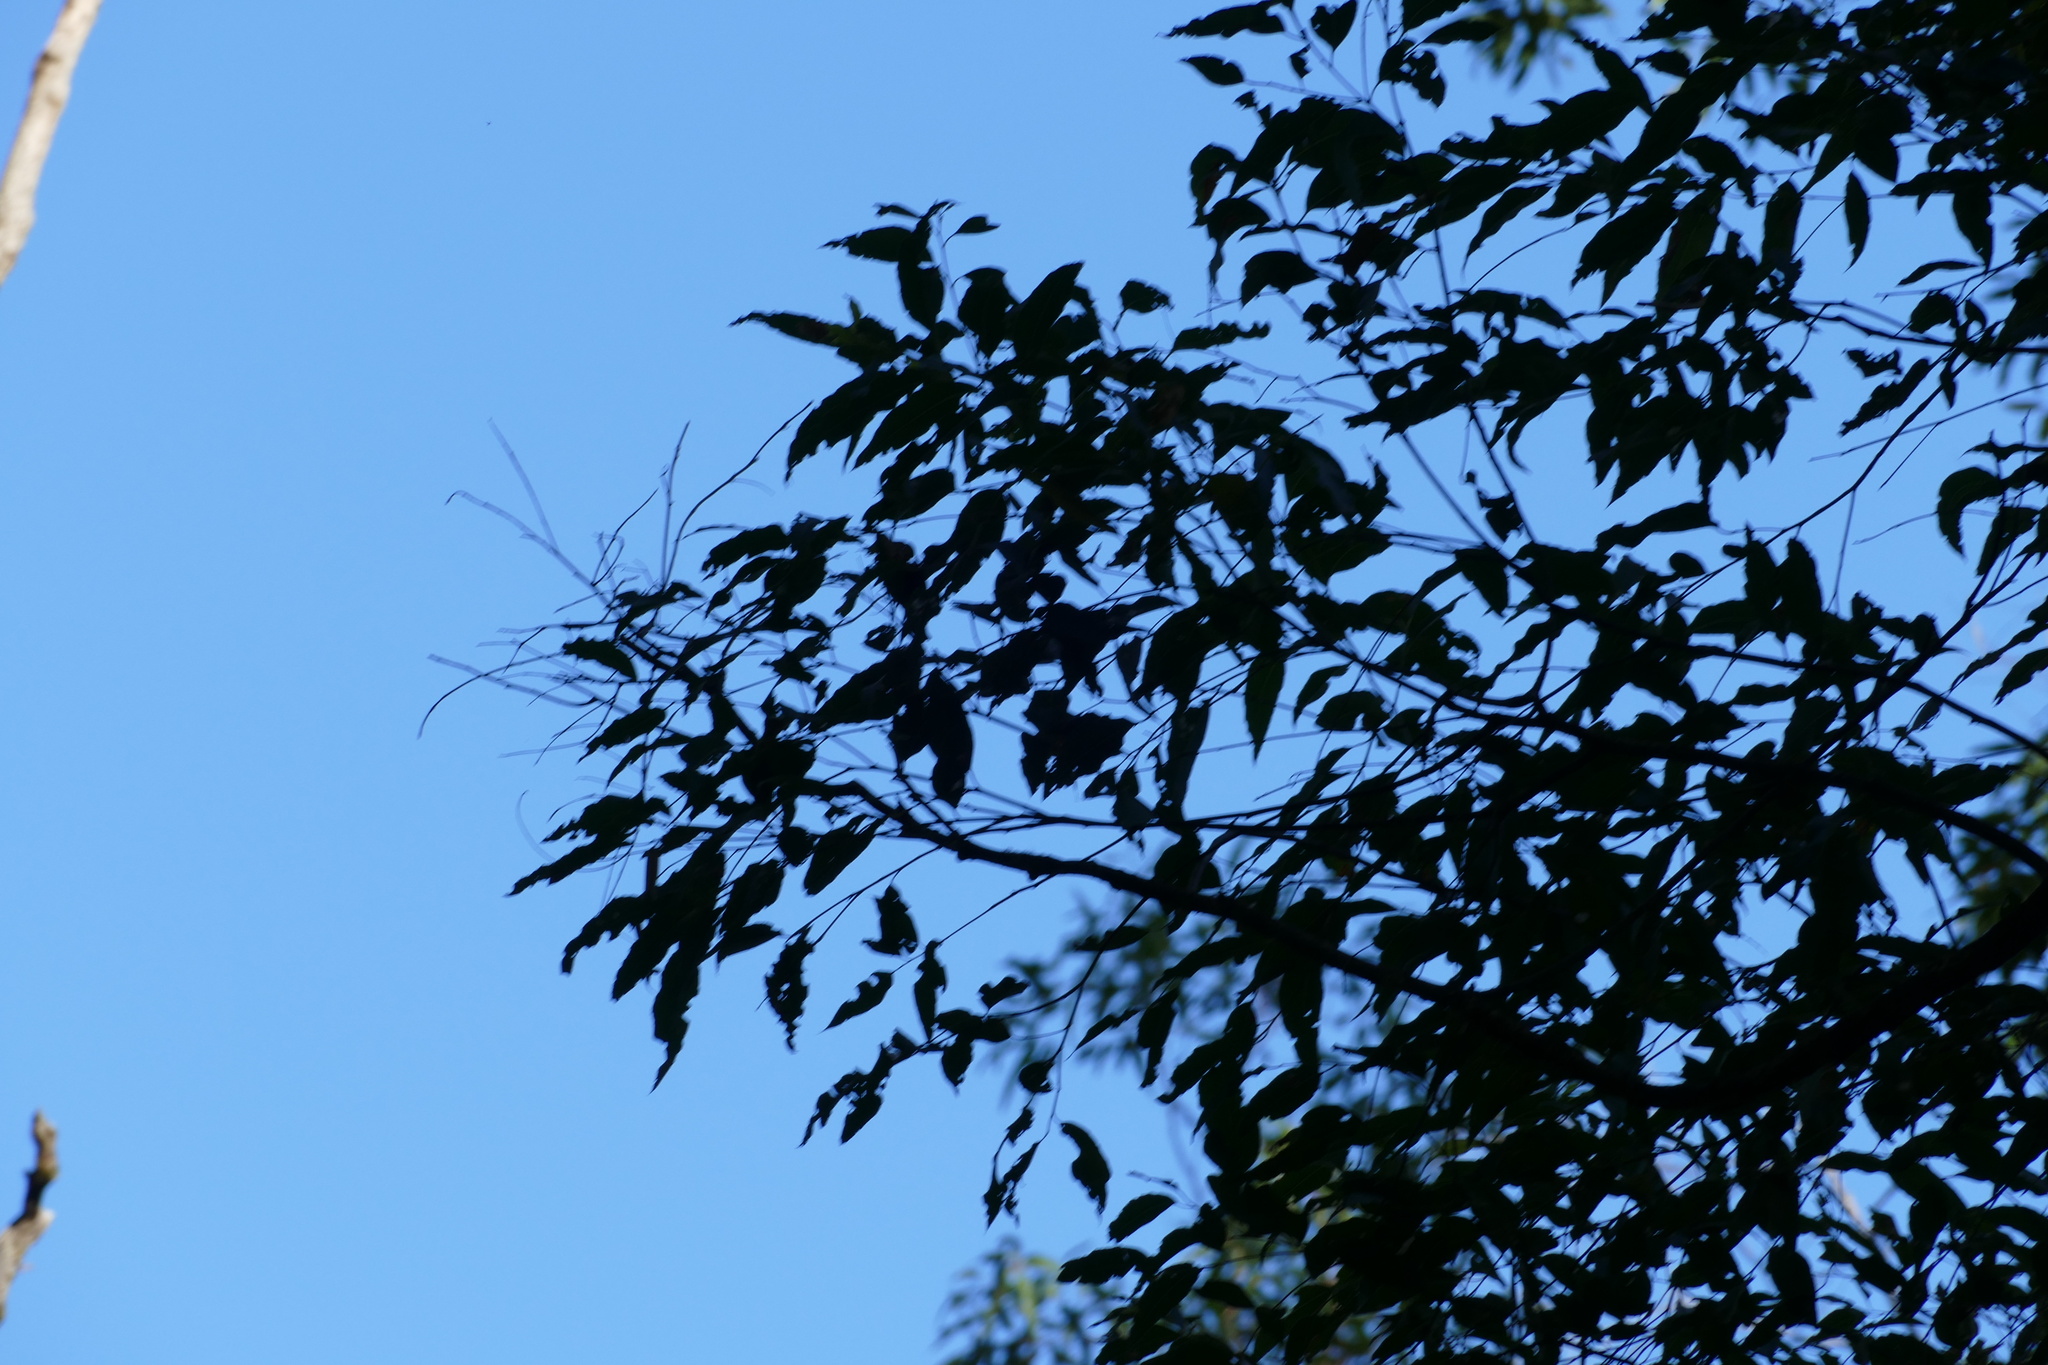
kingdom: Plantae
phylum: Tracheophyta
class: Magnoliopsida
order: Myrtales
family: Myrtaceae
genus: Eucalyptus
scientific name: Eucalyptus microcorys
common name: Tallowwood
